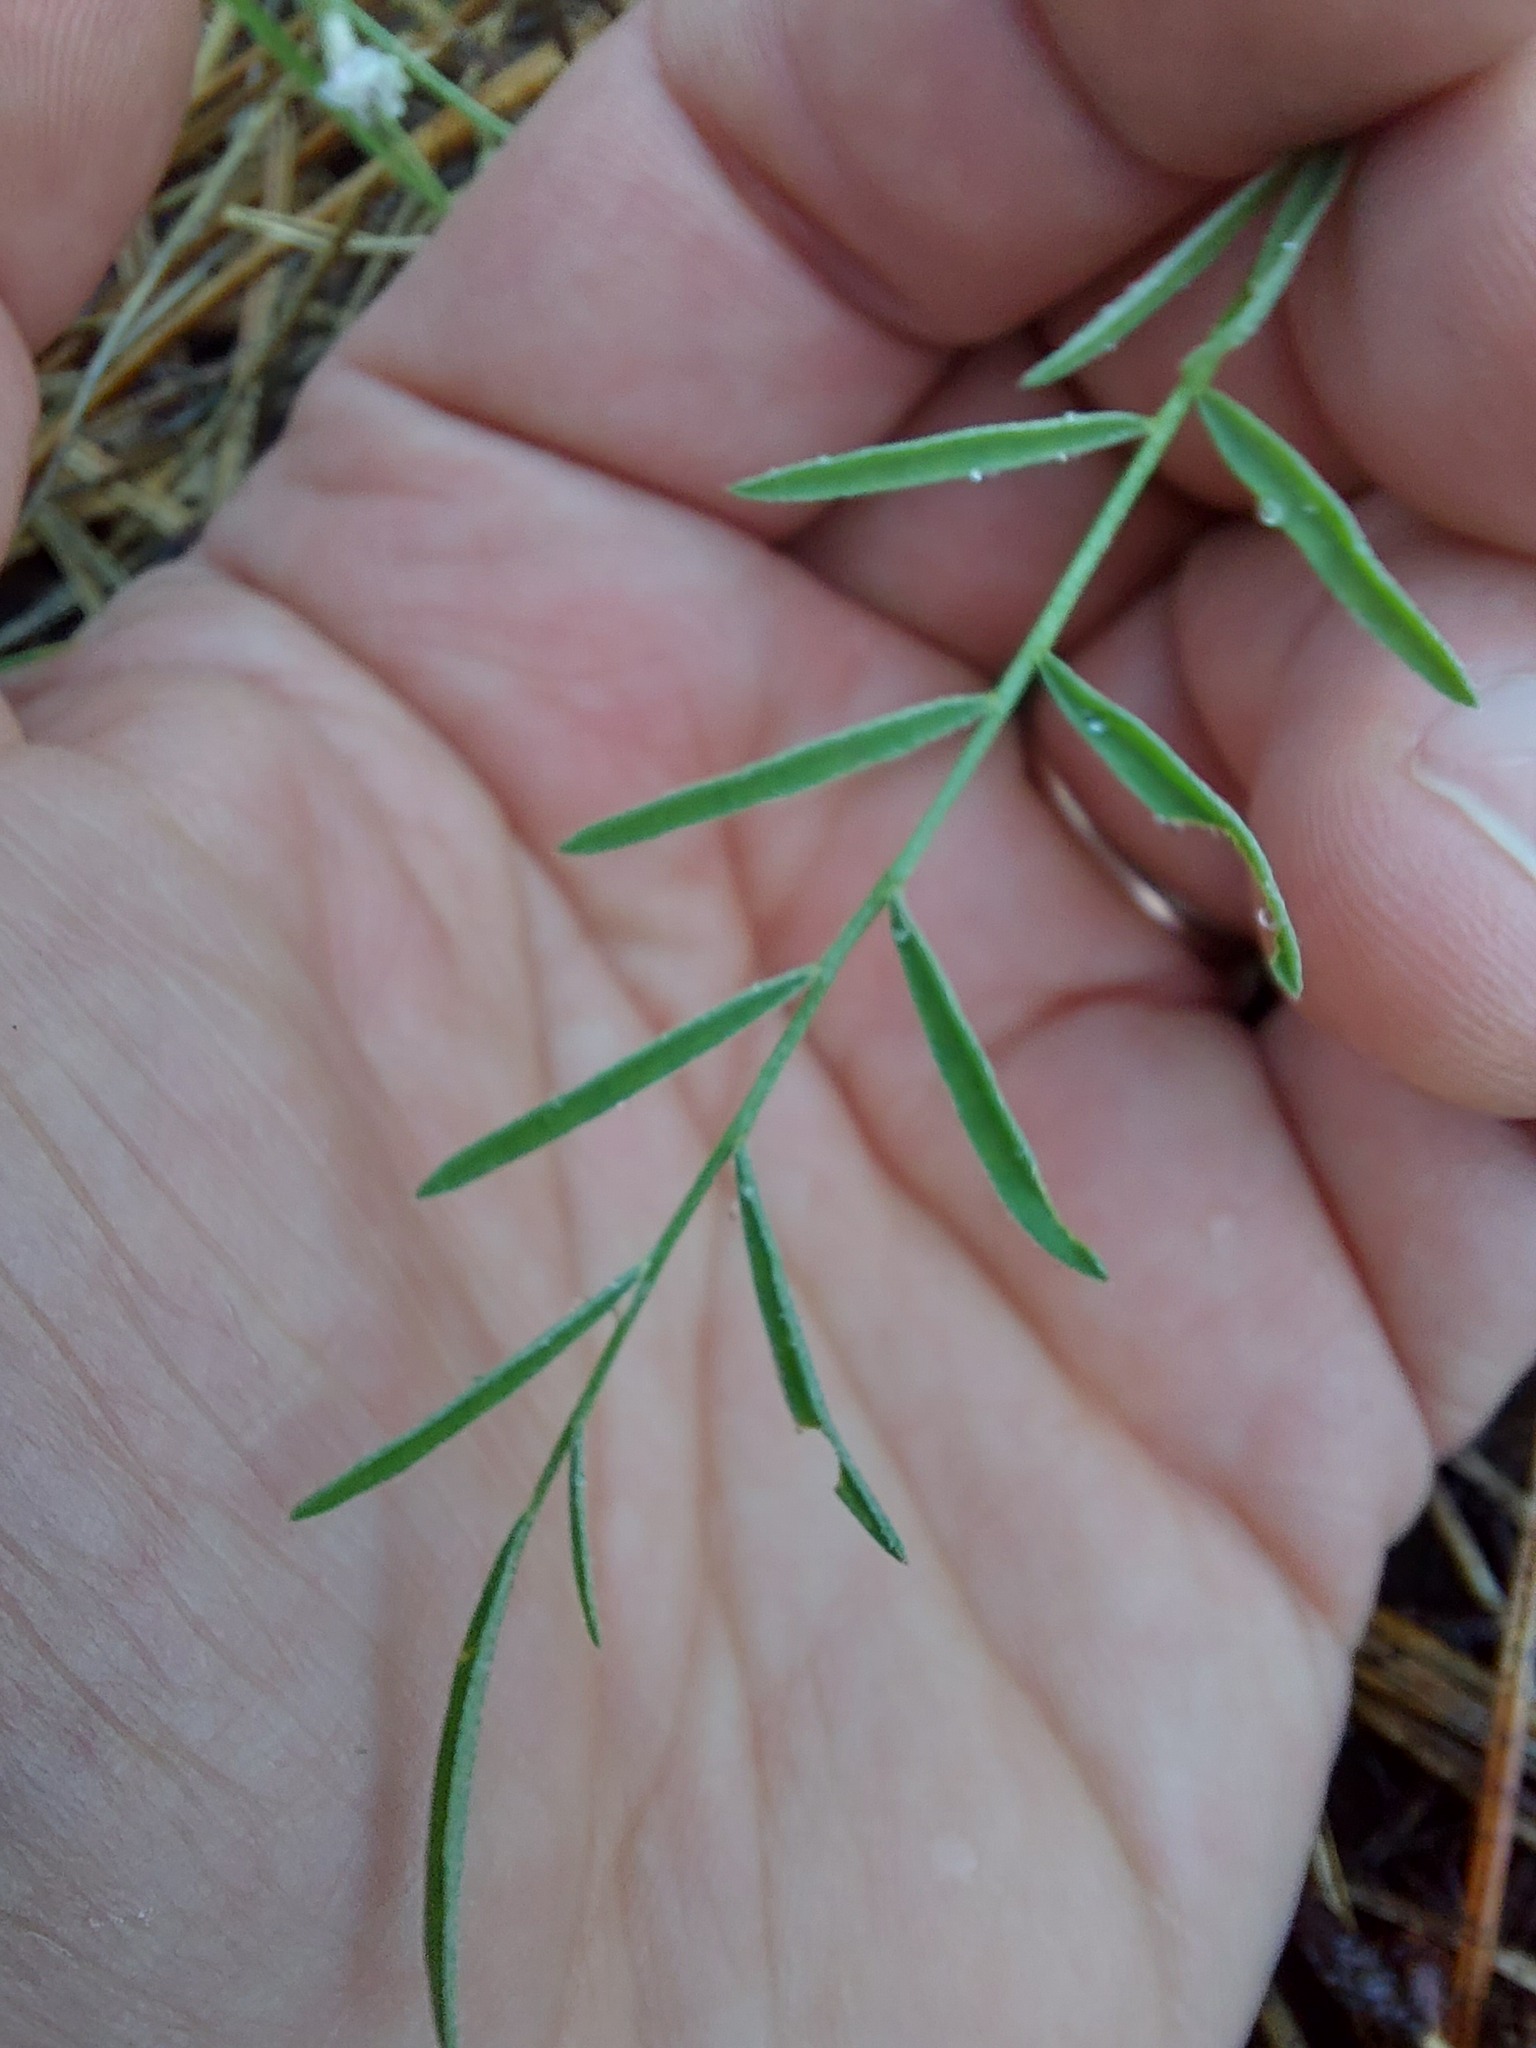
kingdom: Plantae
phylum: Tracheophyta
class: Magnoliopsida
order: Fabales
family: Fabaceae
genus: Astragalus
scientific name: Astragalus miser
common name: Timber milkvetch
